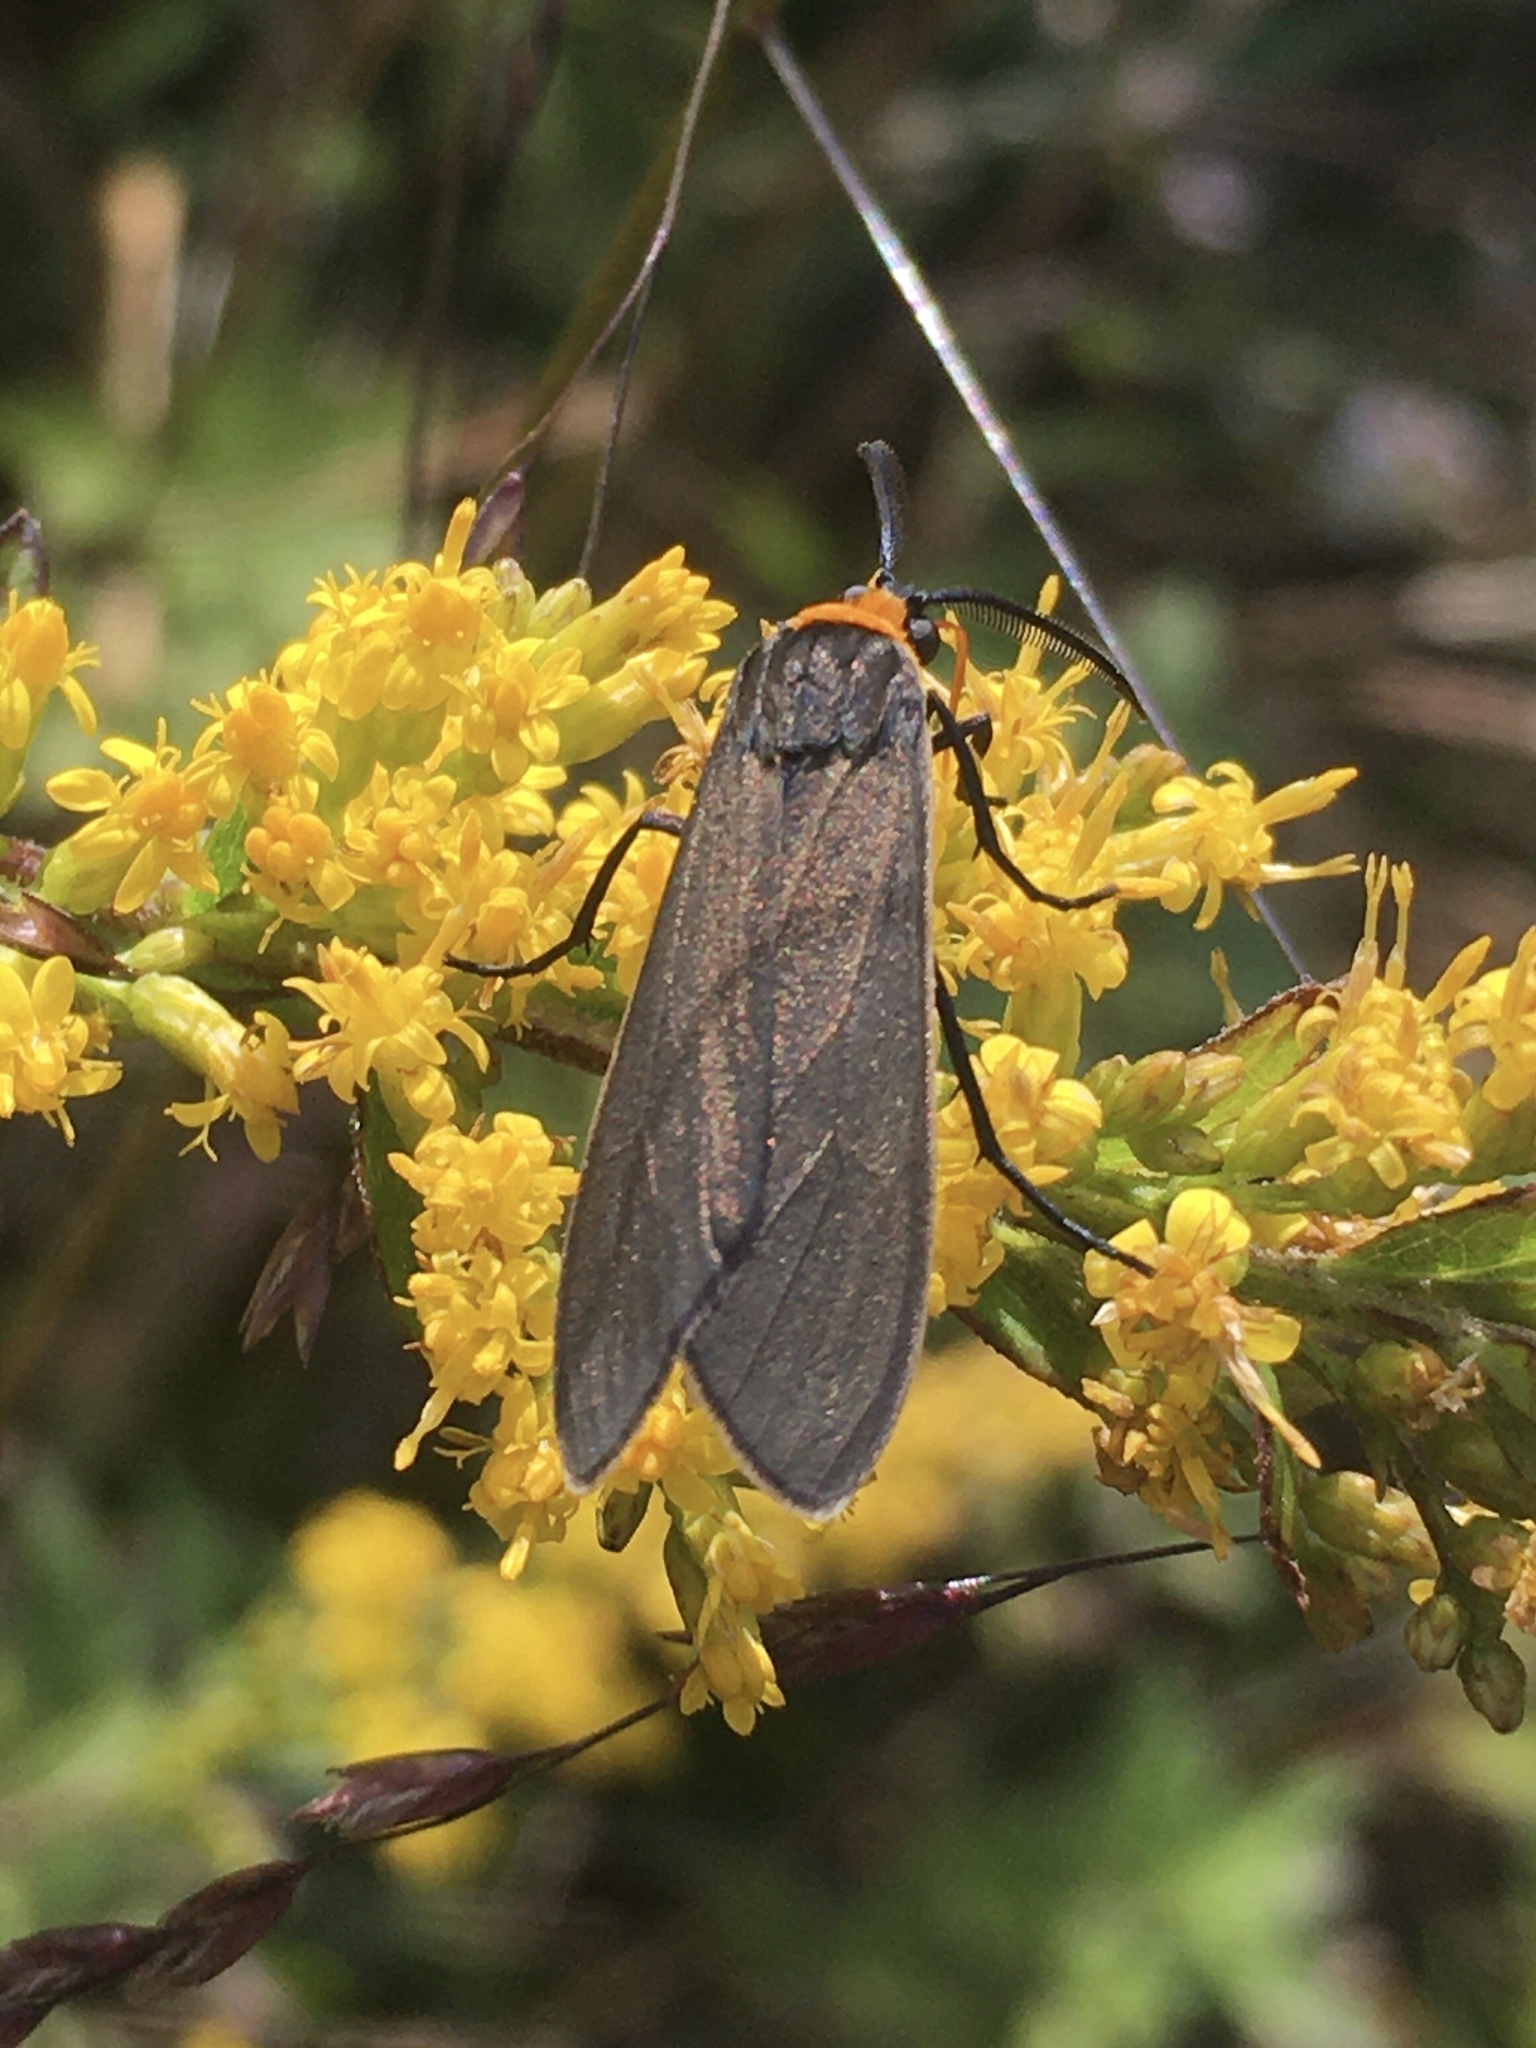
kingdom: Animalia
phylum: Arthropoda
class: Insecta
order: Lepidoptera
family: Erebidae
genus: Cisseps
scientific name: Cisseps fulvicollis
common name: Yellow-collared scape moth
